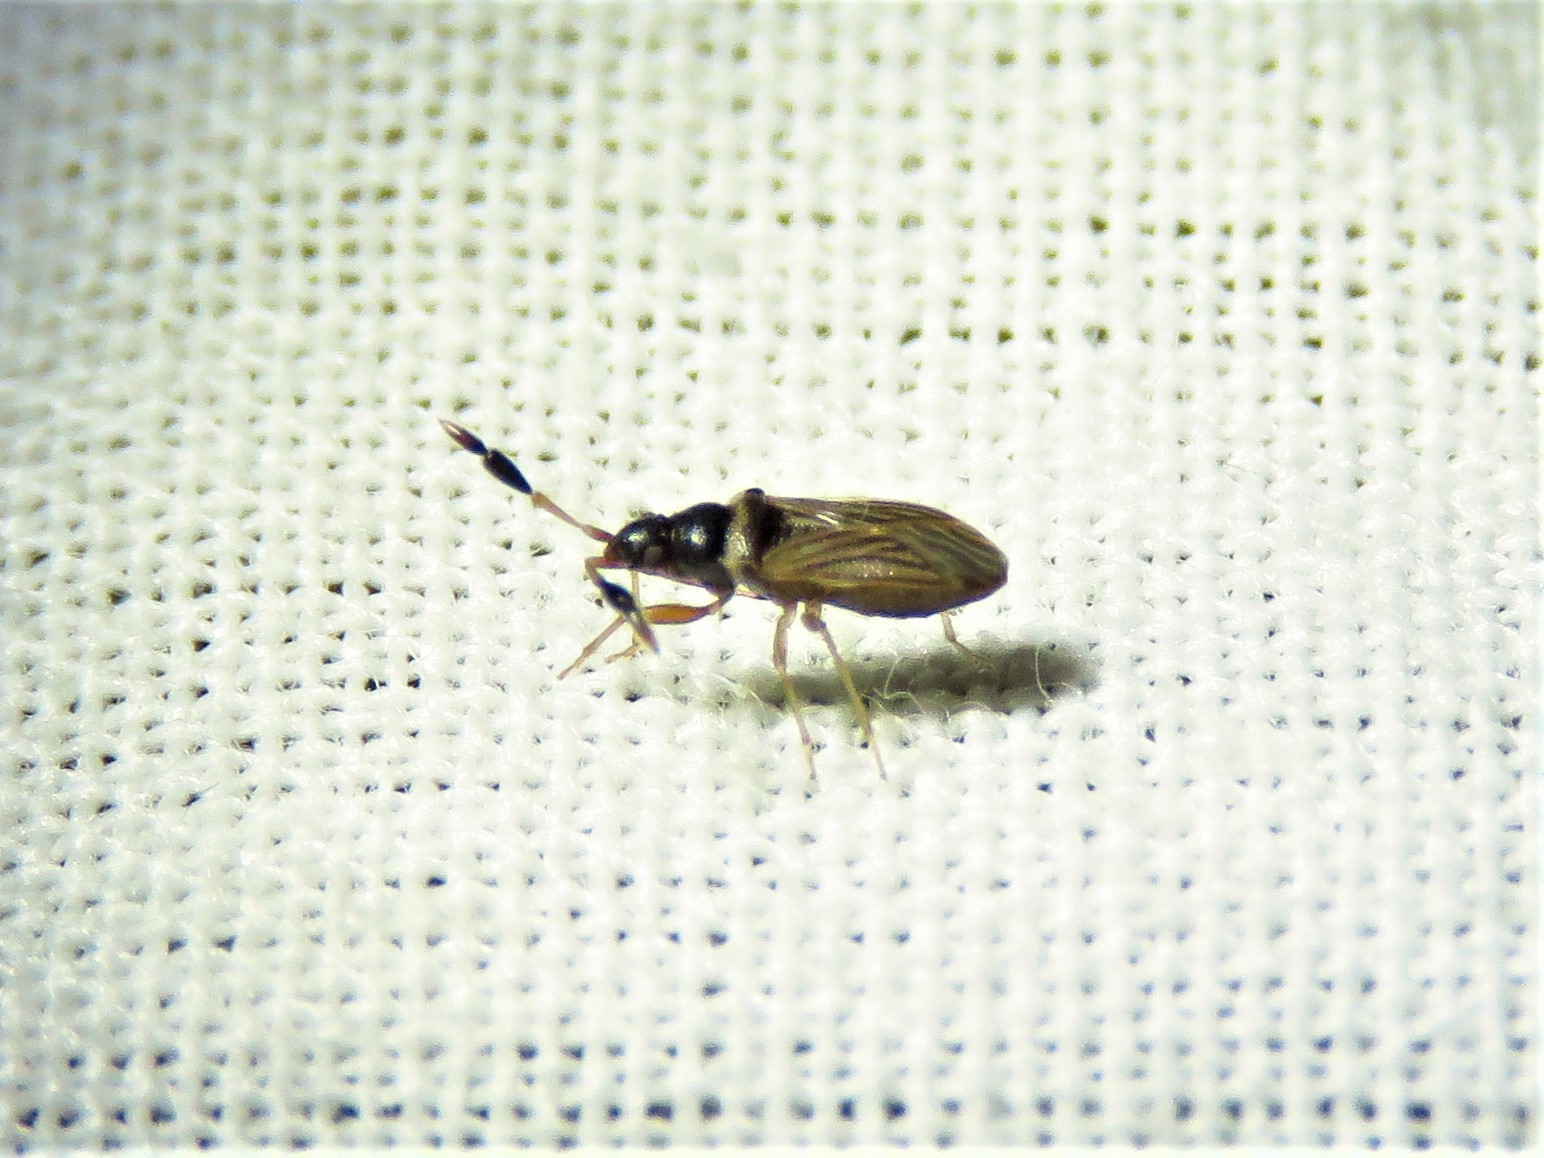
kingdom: Animalia
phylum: Arthropoda
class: Insecta
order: Hemiptera
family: Rhyparochromidae
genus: Ptochiomera
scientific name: Ptochiomera nodosa
